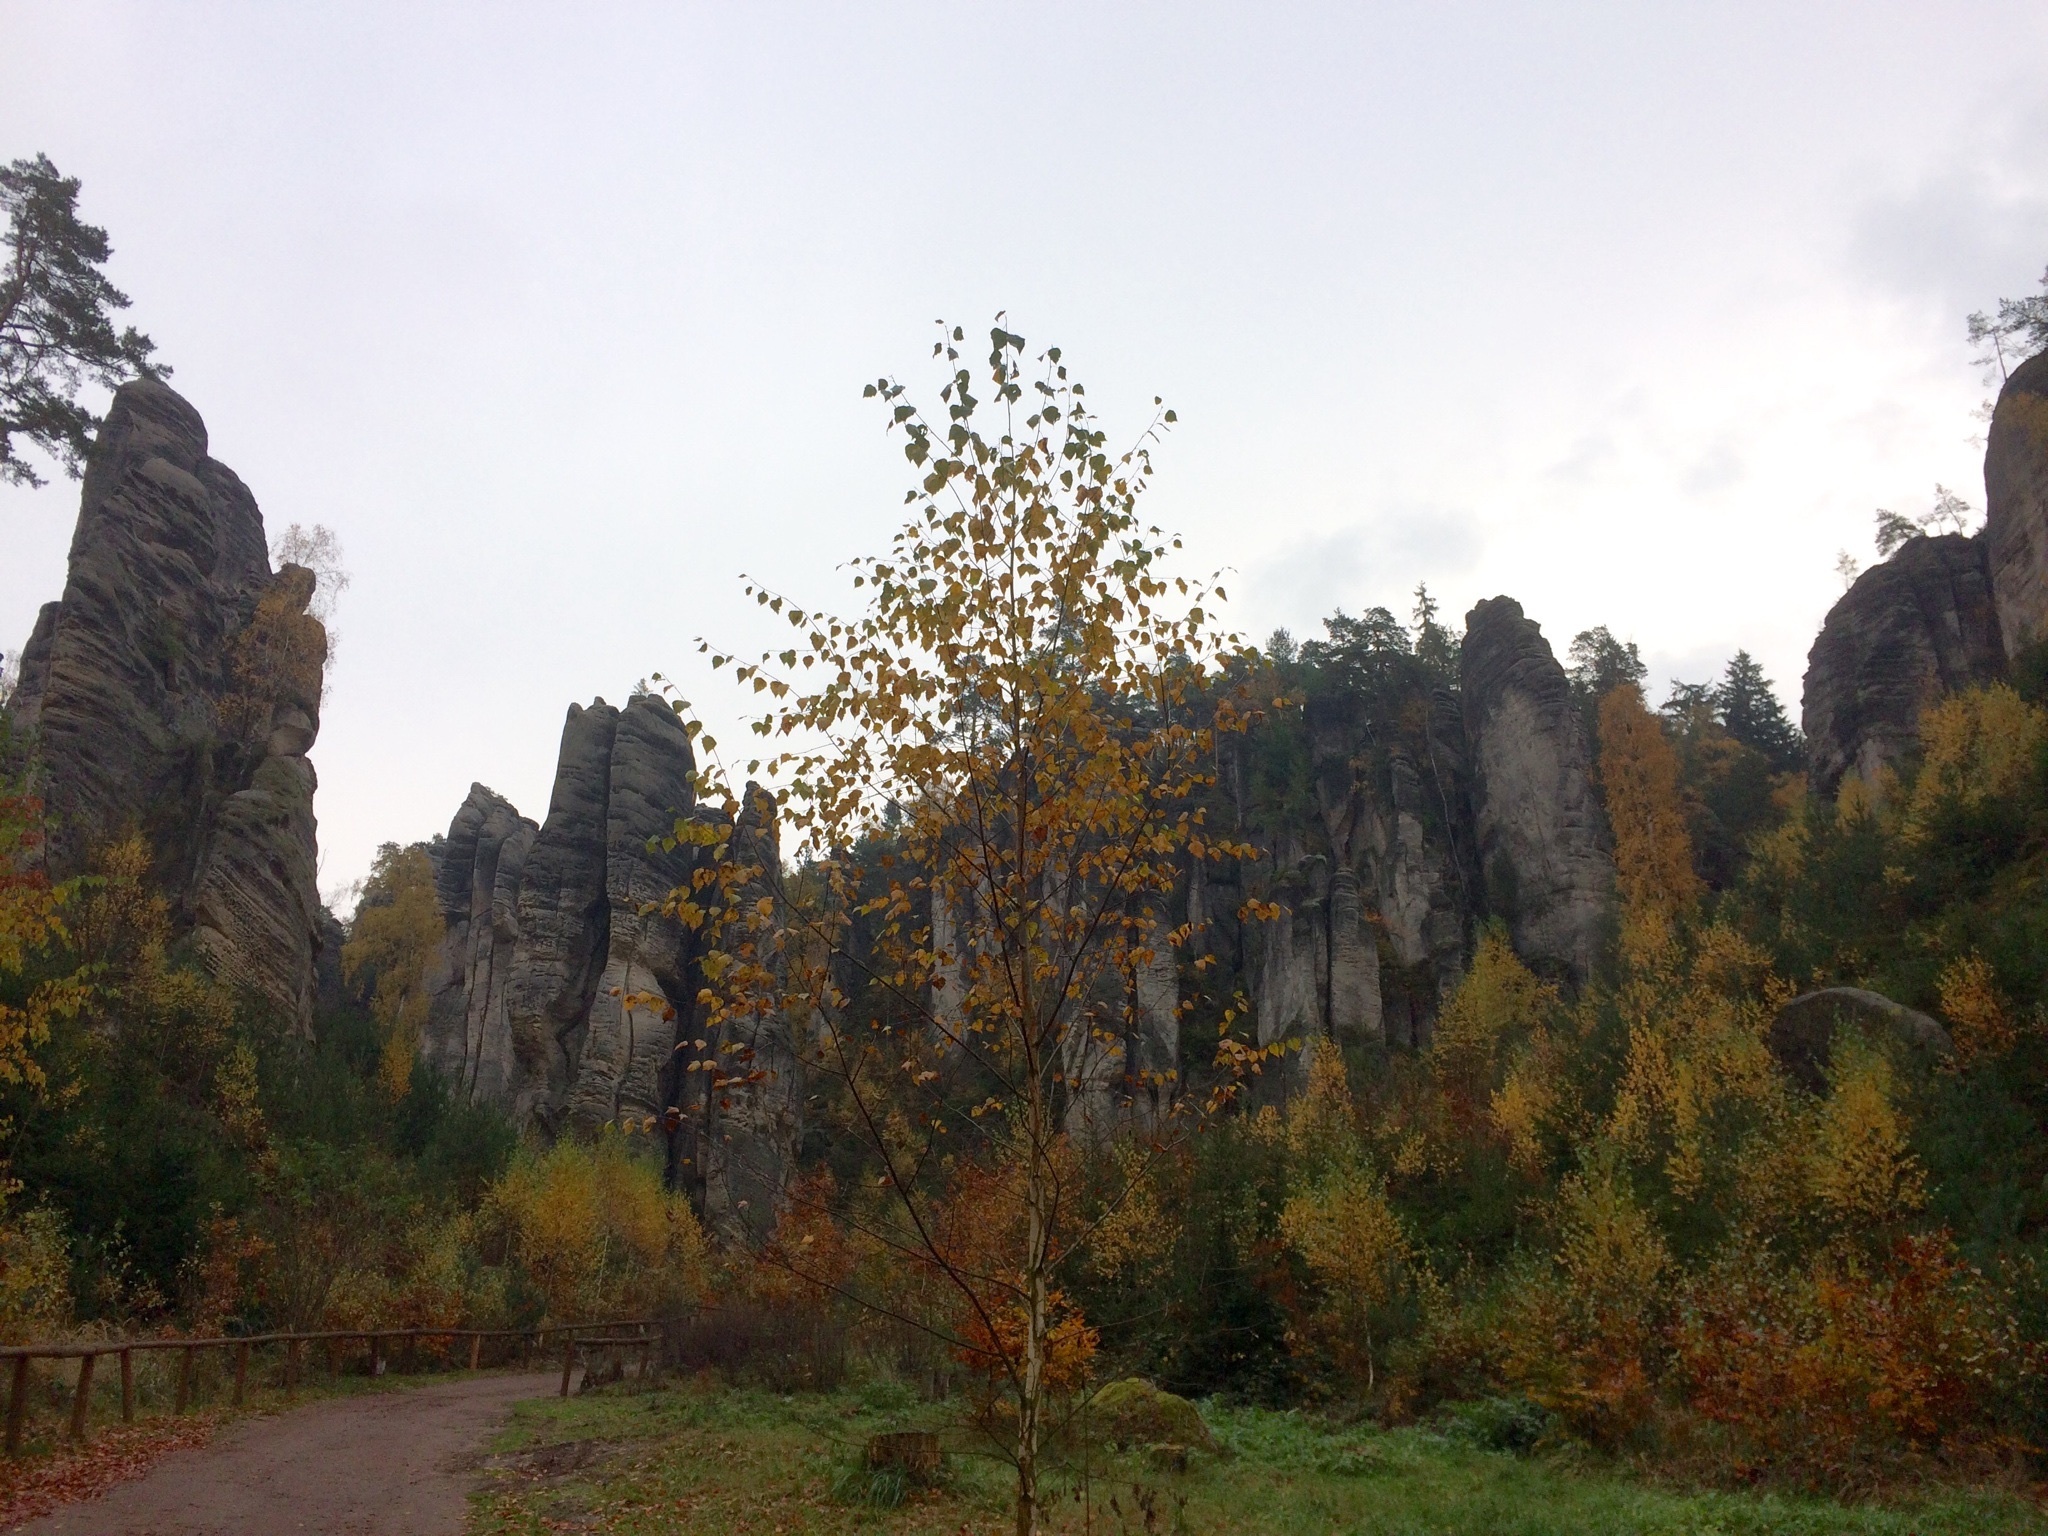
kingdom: Plantae
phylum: Tracheophyta
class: Magnoliopsida
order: Fagales
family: Betulaceae
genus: Betula
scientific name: Betula pendula
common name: Silver birch
